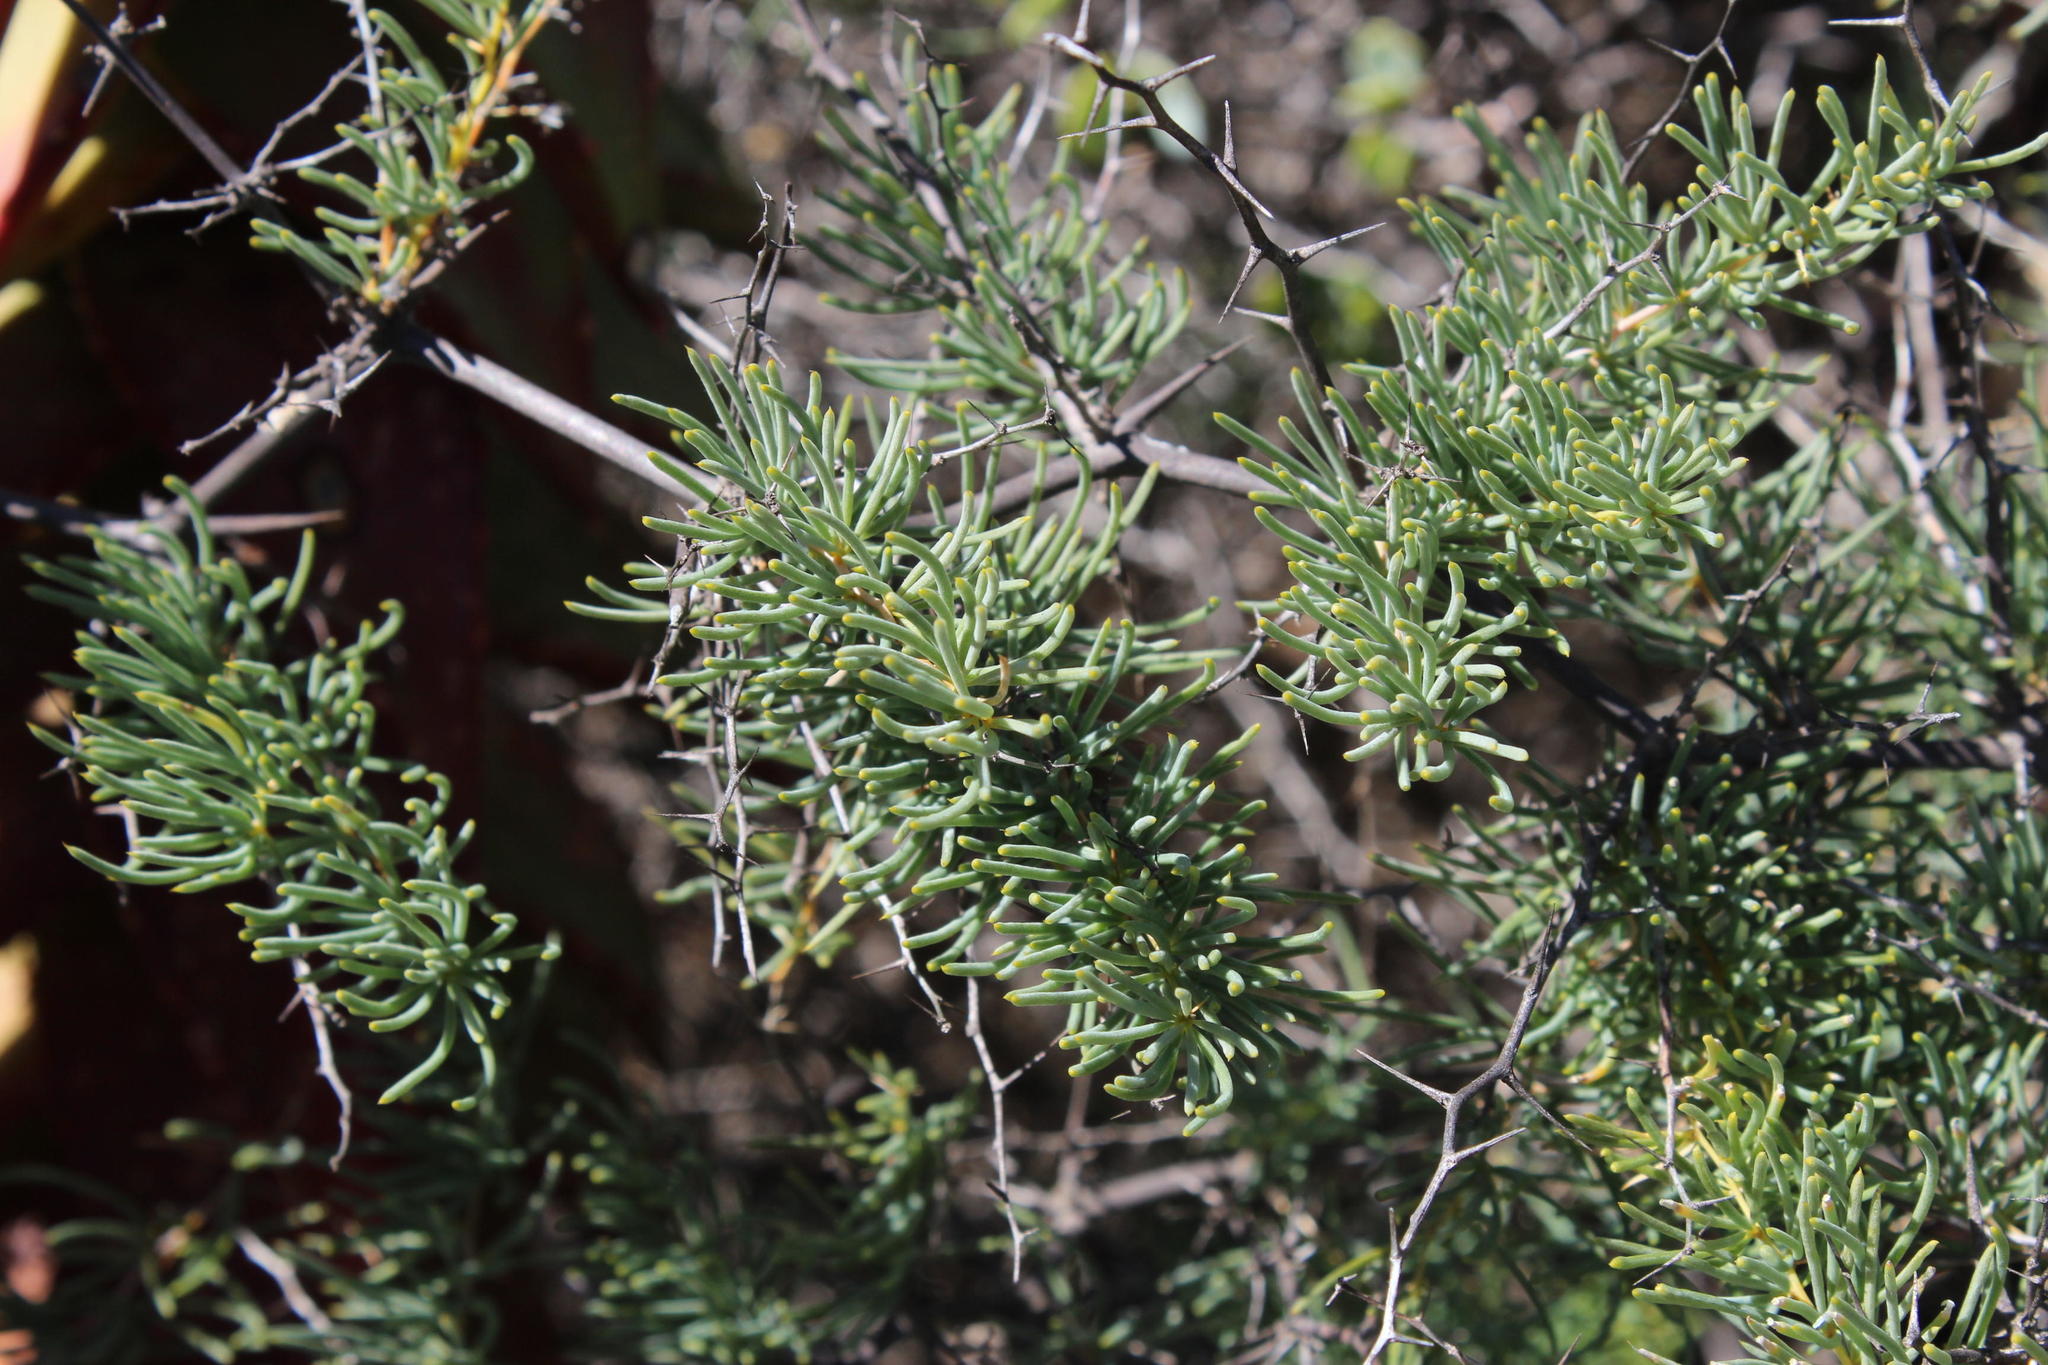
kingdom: Plantae
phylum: Tracheophyta
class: Liliopsida
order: Asparagales
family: Asparagaceae
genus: Asparagus
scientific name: Asparagus capensis
